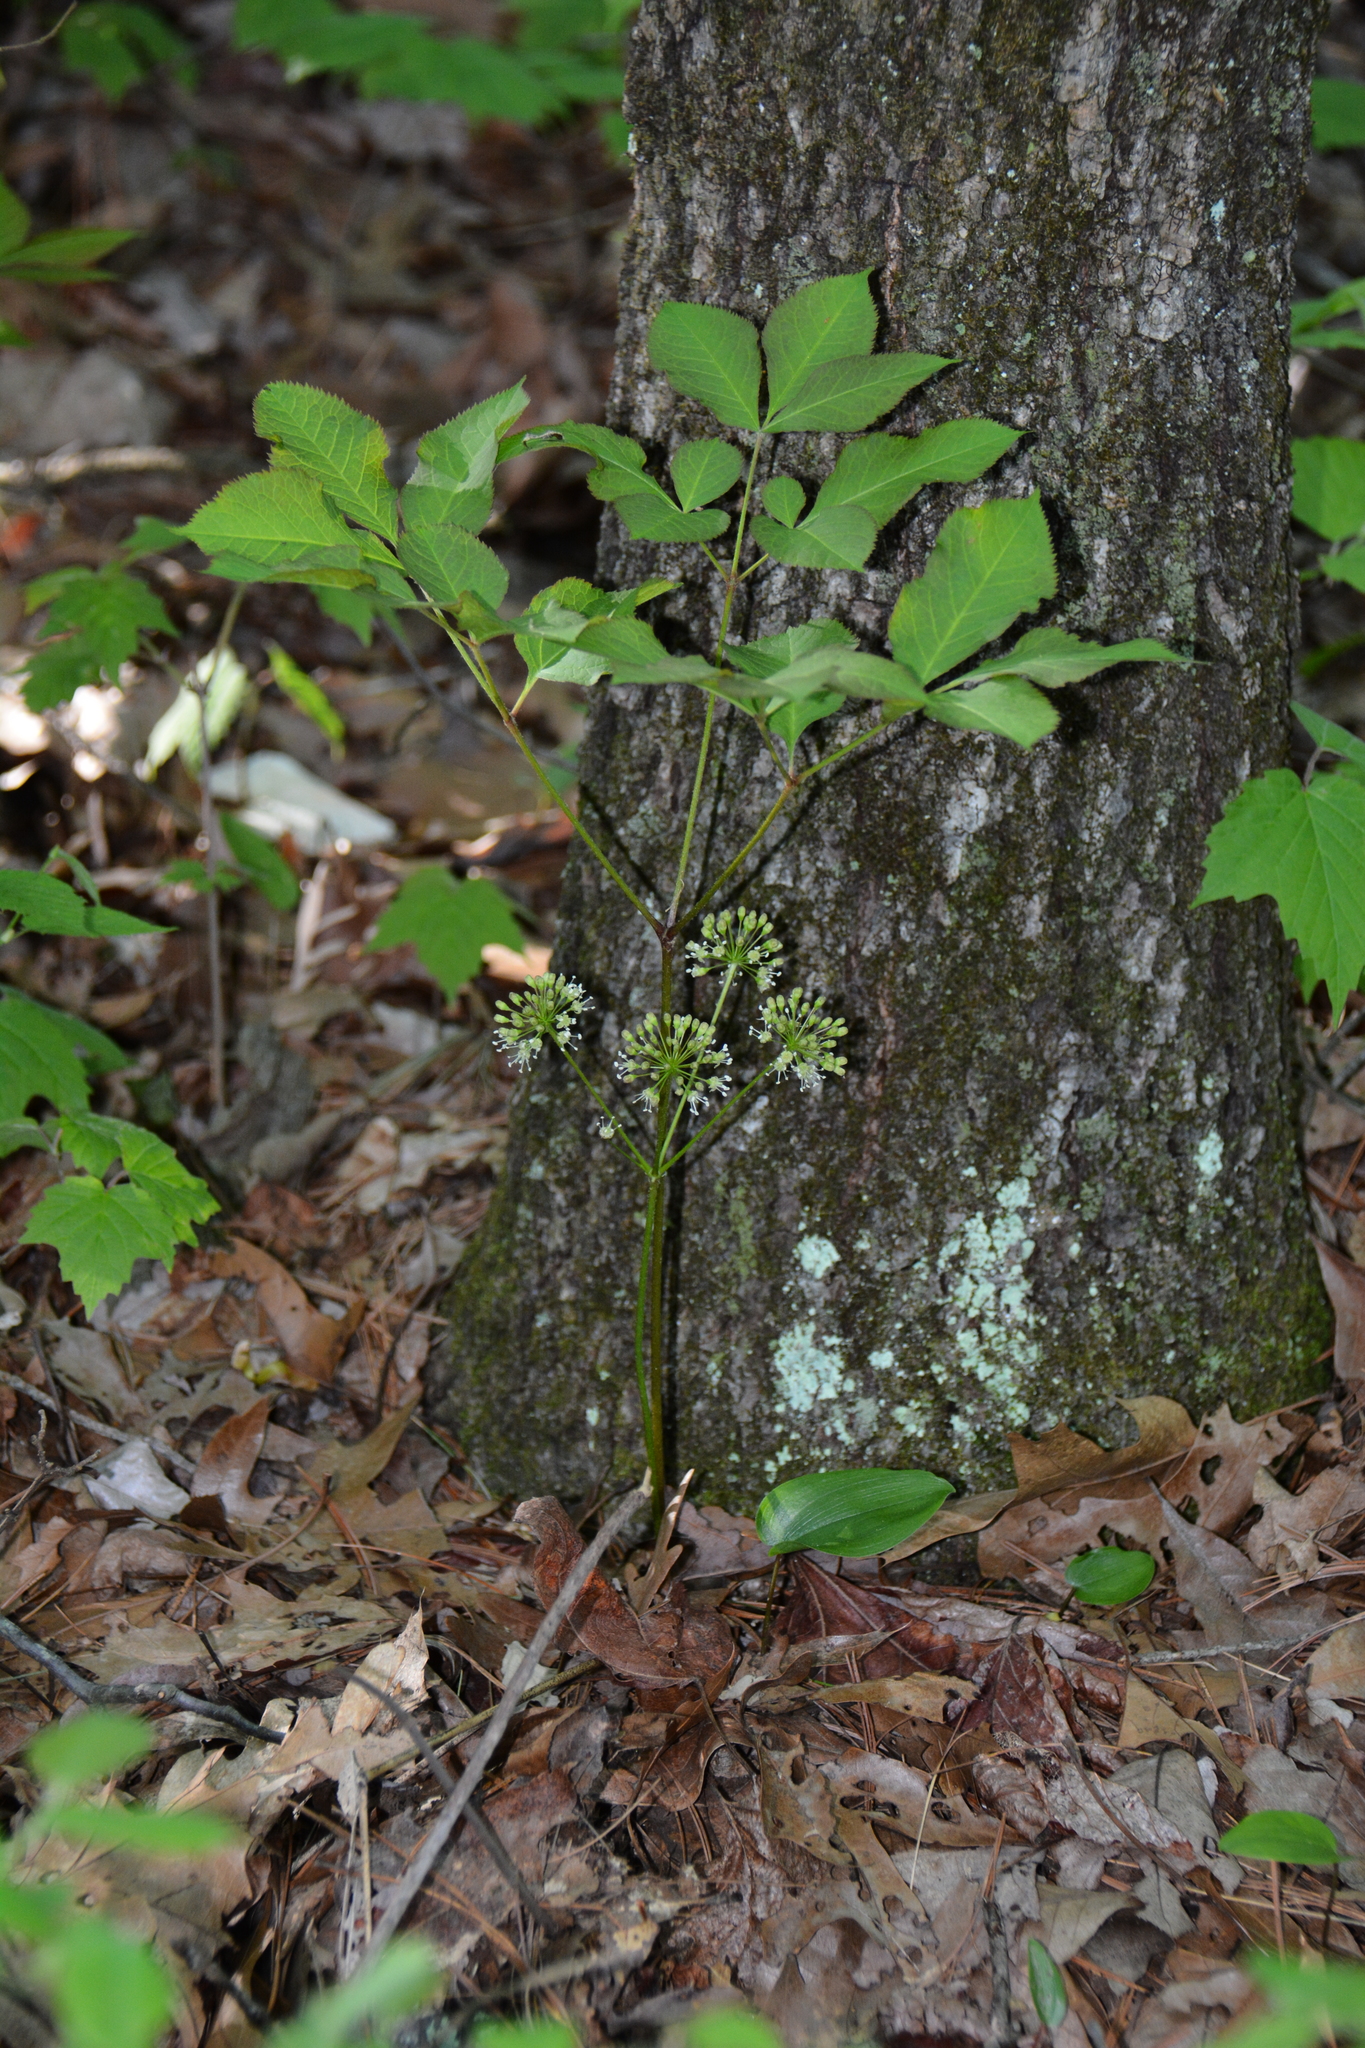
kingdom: Plantae
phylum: Tracheophyta
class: Magnoliopsida
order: Apiales
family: Araliaceae
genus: Aralia
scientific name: Aralia nudicaulis
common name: Wild sarsaparilla
